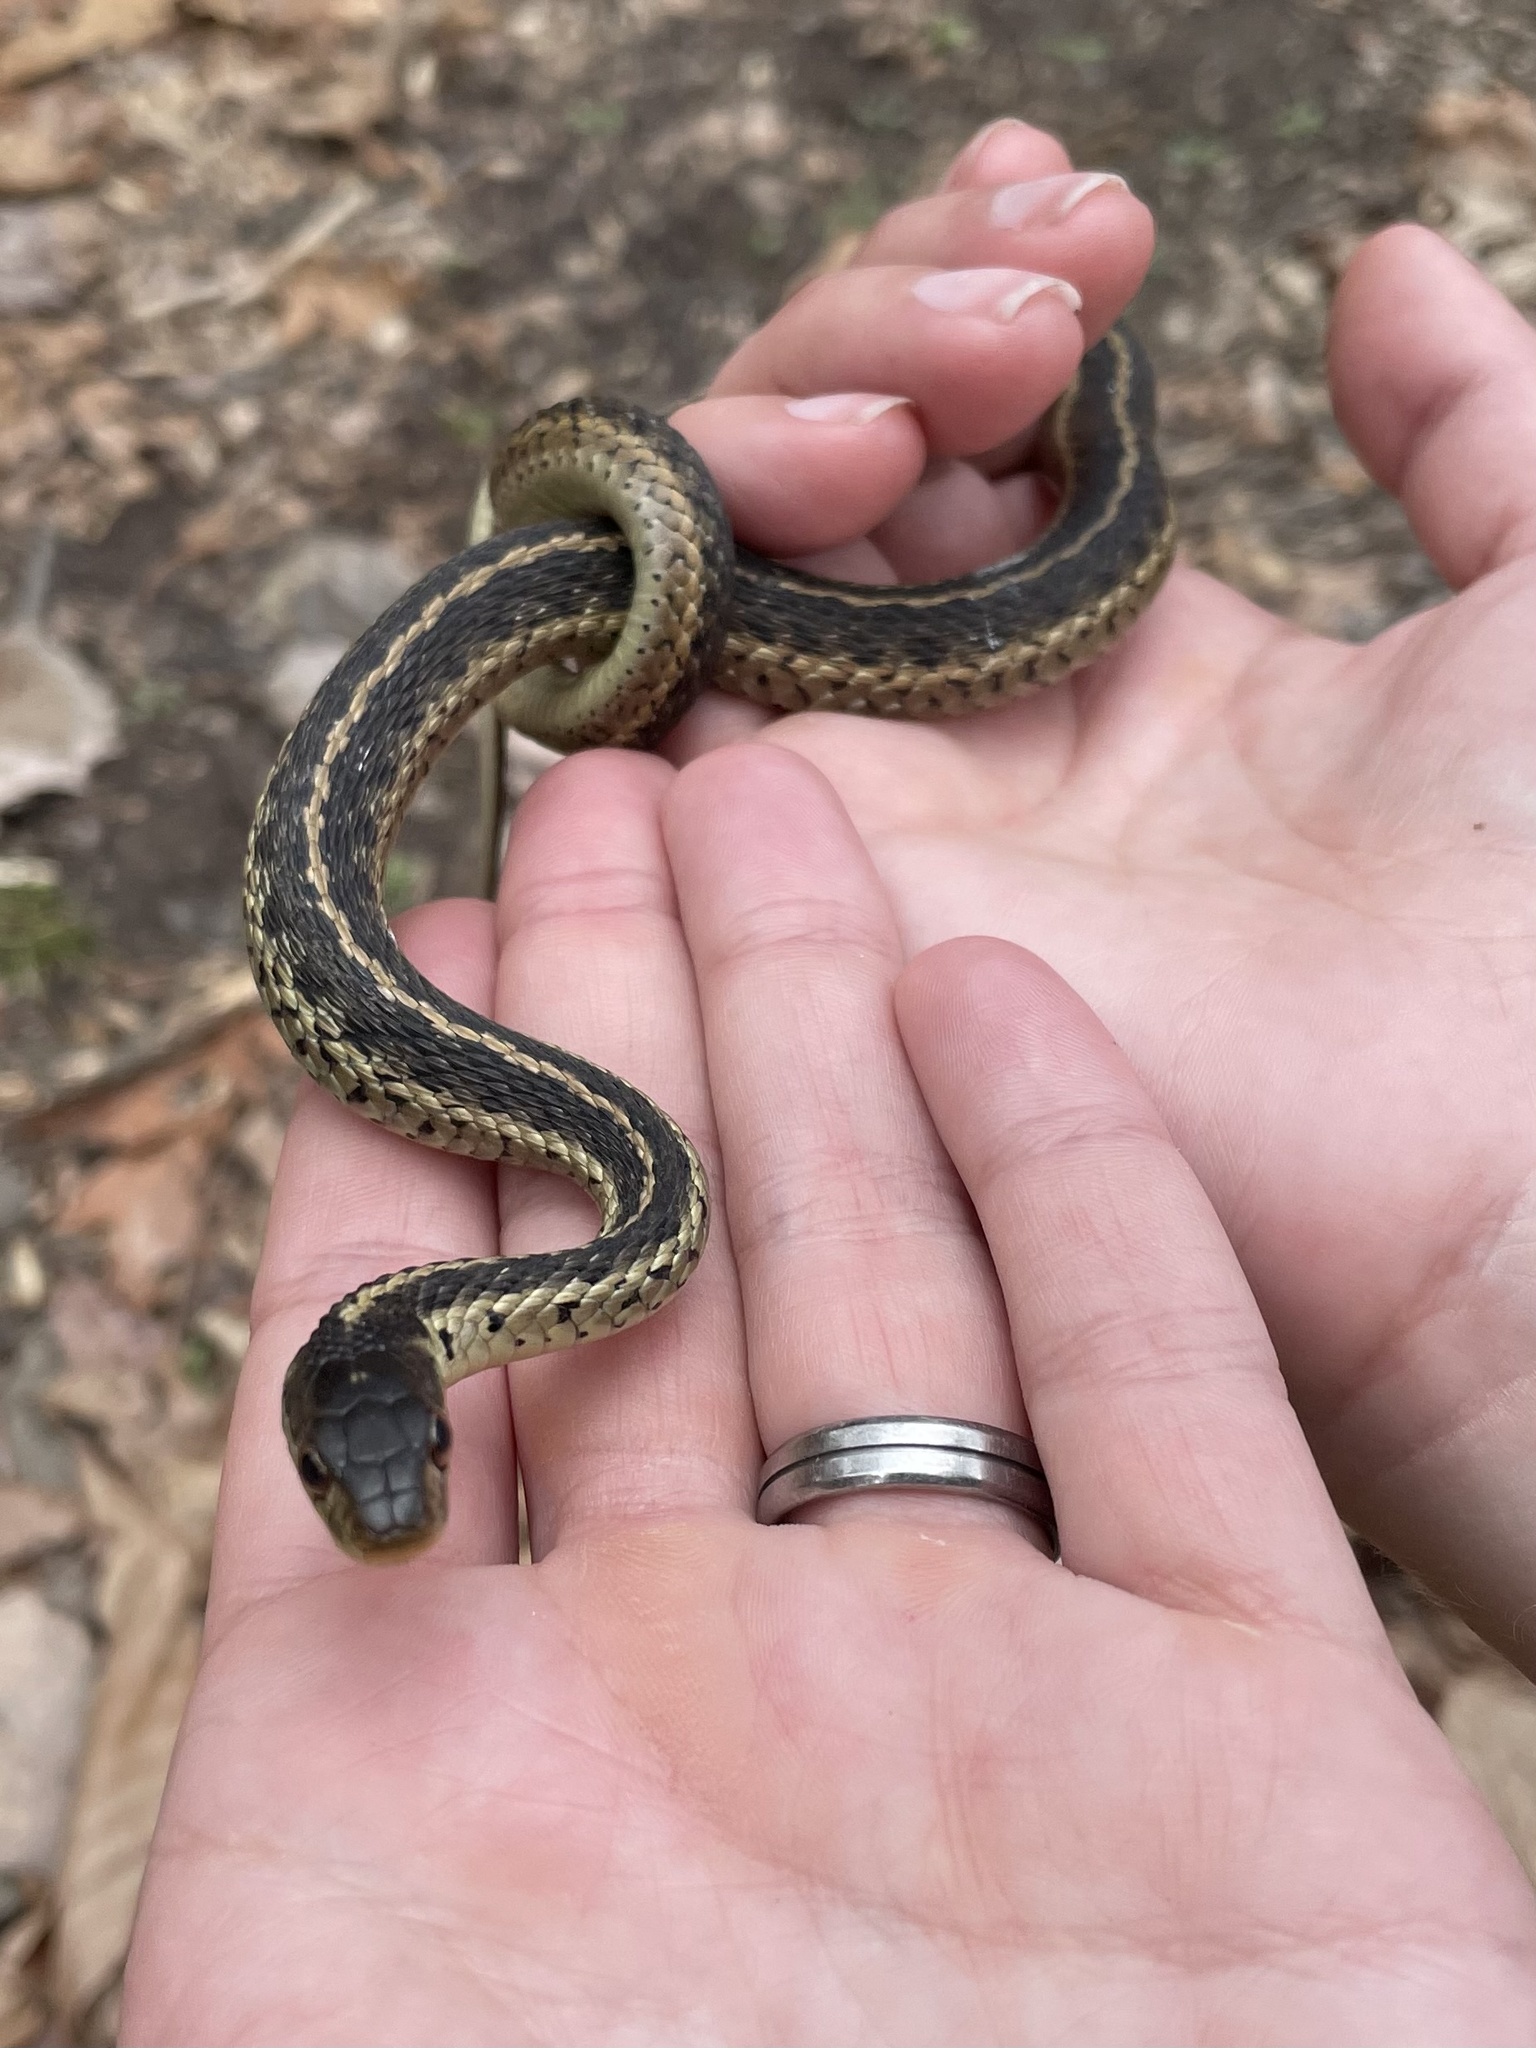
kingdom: Animalia
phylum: Chordata
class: Squamata
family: Colubridae
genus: Thamnophis
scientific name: Thamnophis sirtalis
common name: Common garter snake
